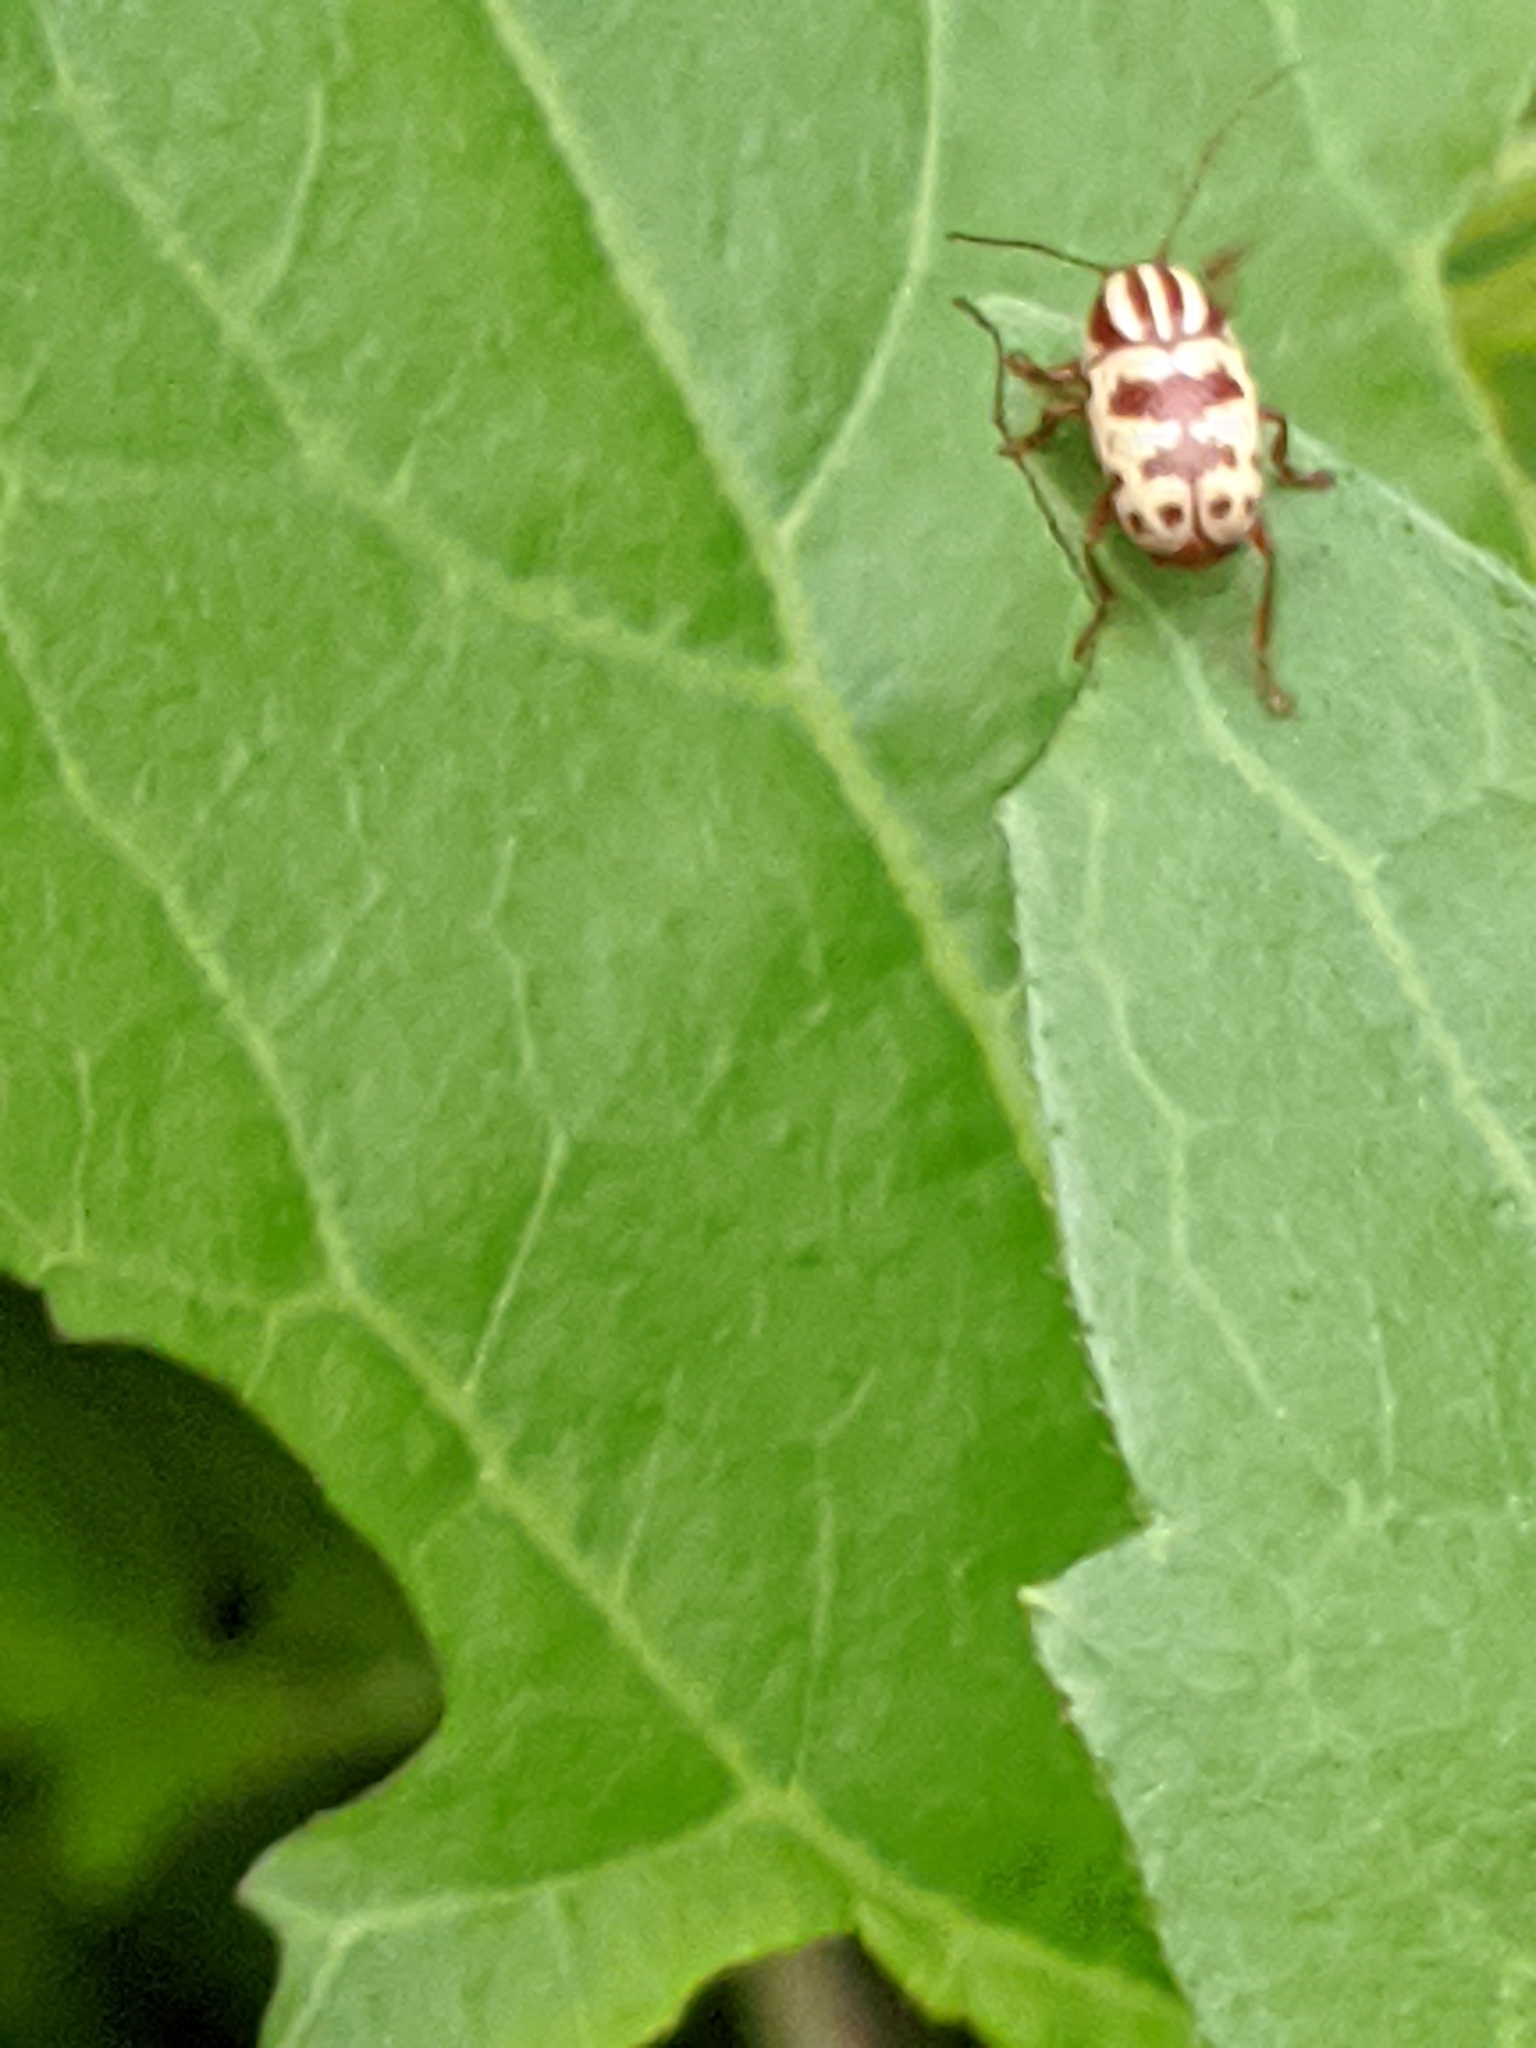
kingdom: Animalia
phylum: Arthropoda
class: Insecta
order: Coleoptera
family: Chrysomelidae
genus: Cryptocephalus
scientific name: Cryptocephalus leucomelas
